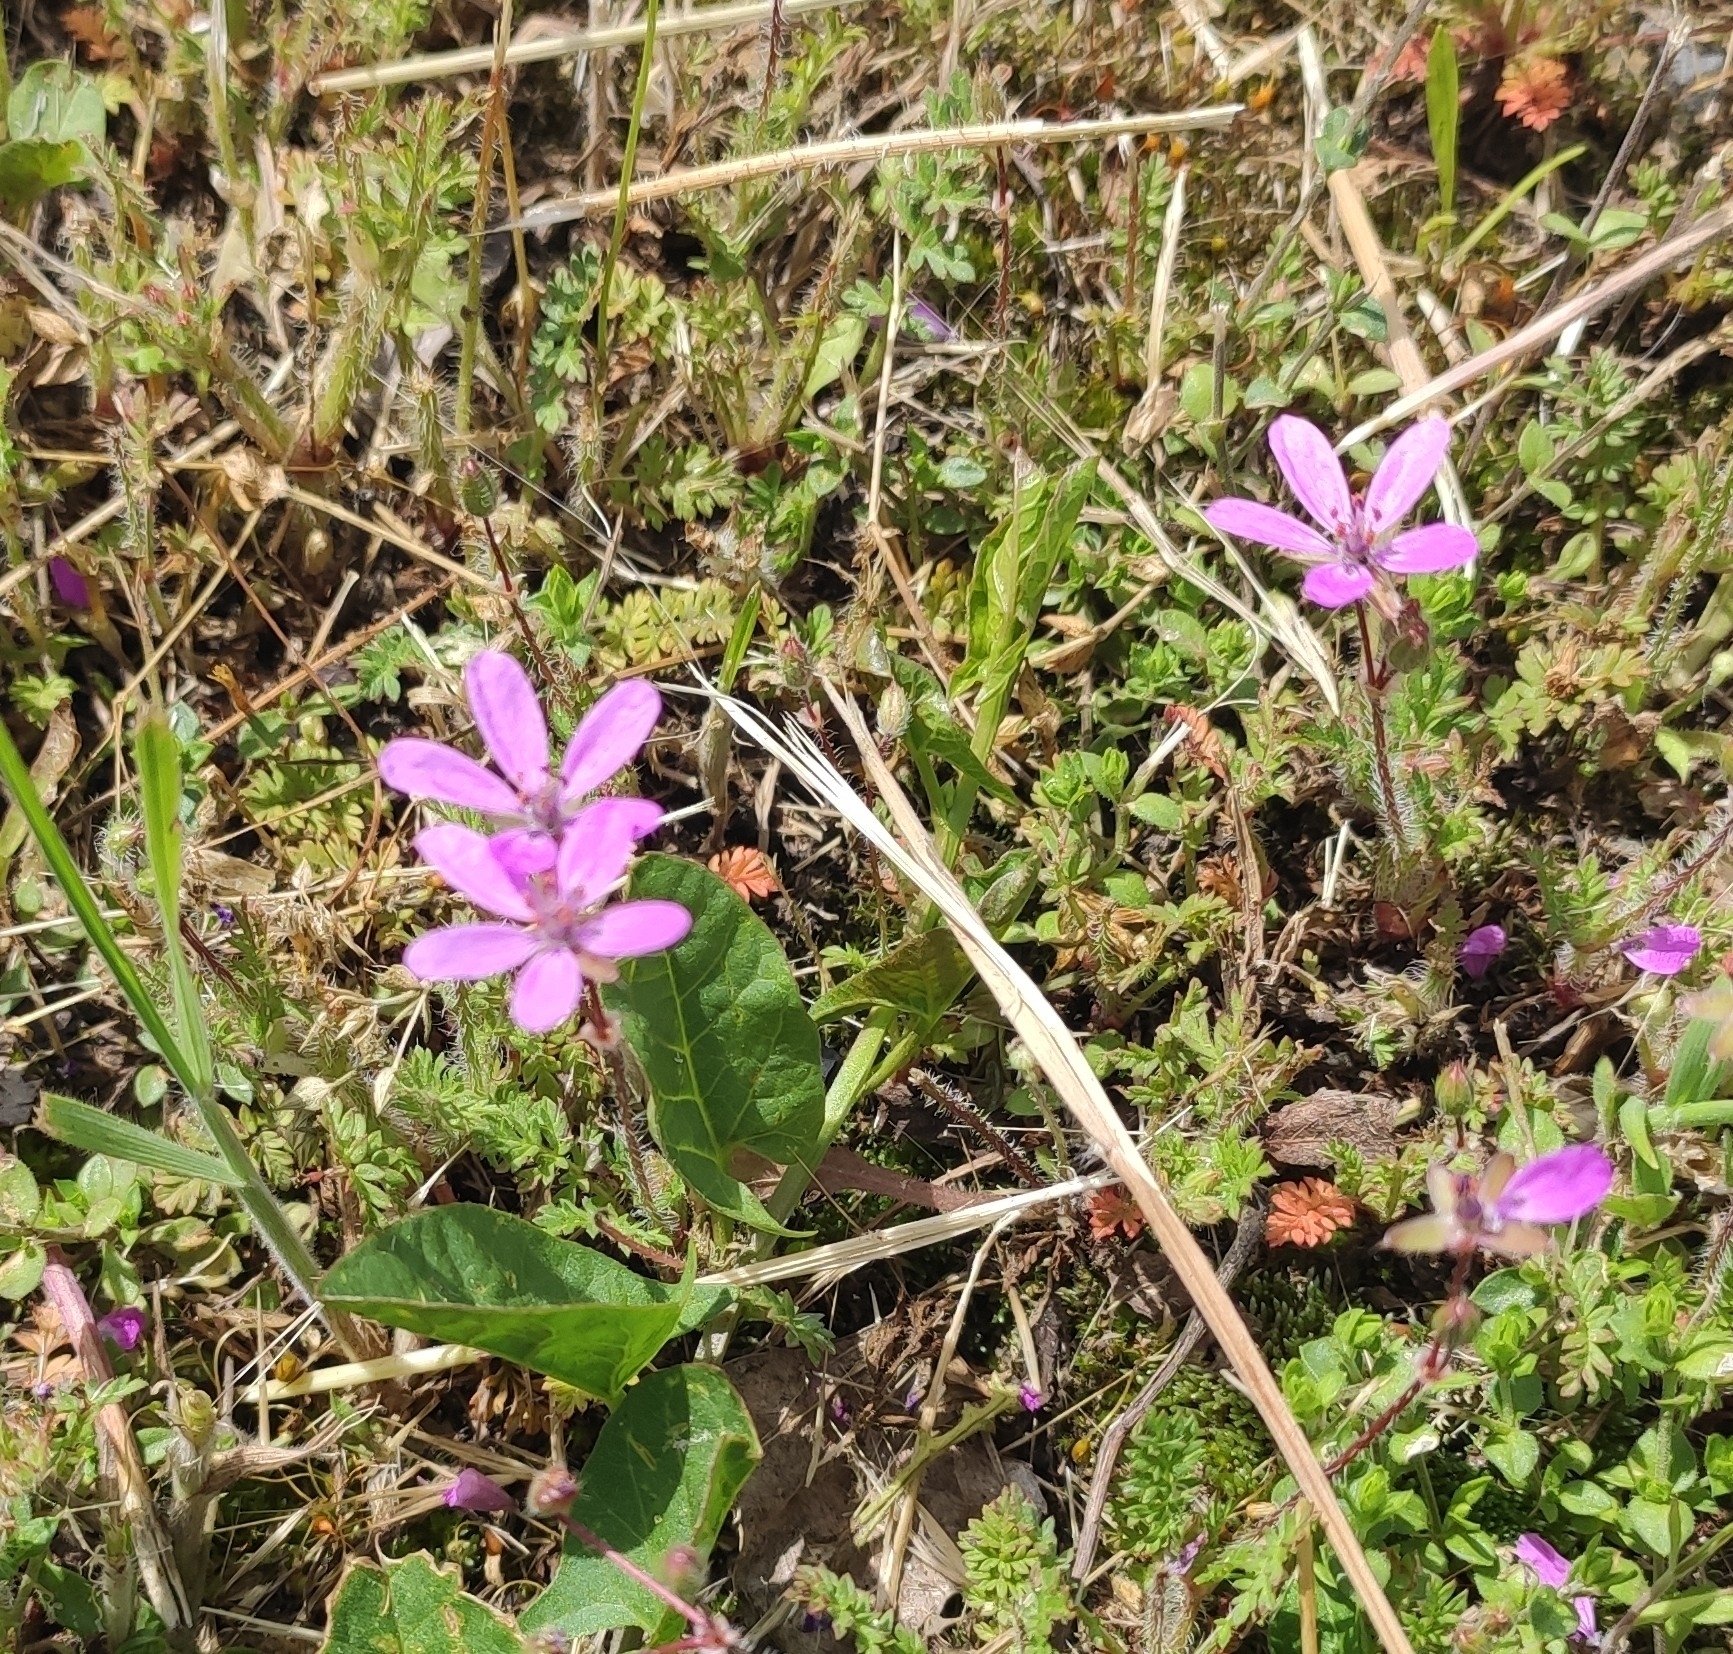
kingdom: Plantae
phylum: Tracheophyta
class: Magnoliopsida
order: Geraniales
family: Geraniaceae
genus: Erodium
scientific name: Erodium cicutarium
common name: Common stork's-bill
